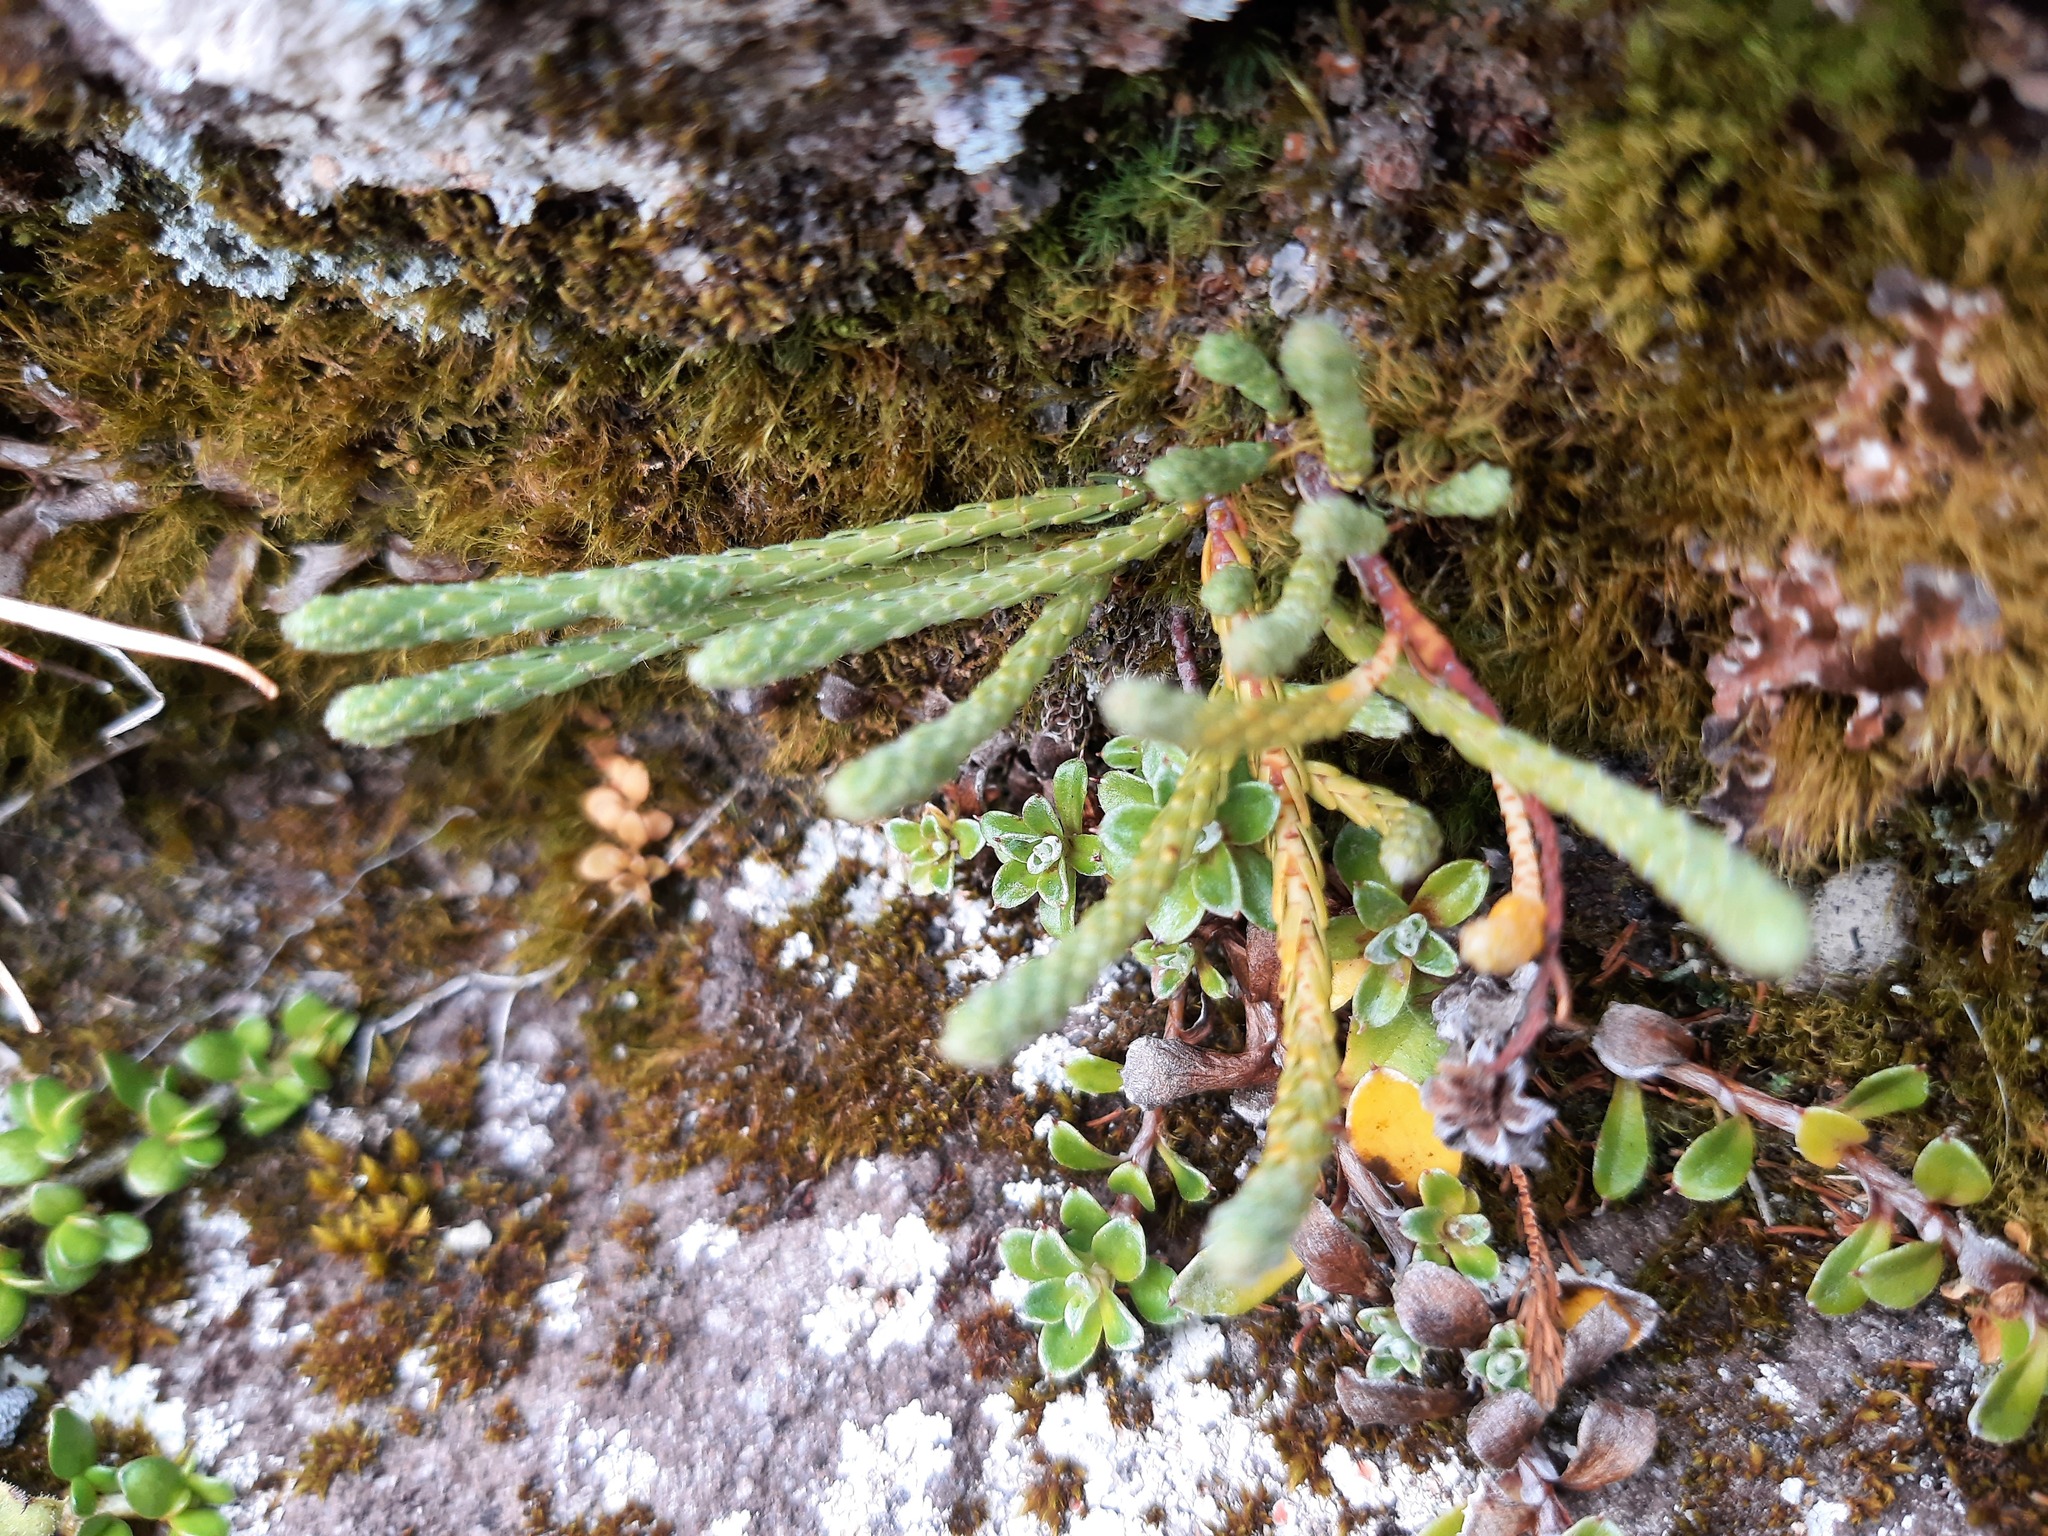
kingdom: Plantae
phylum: Tracheophyta
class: Magnoliopsida
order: Malvales
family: Thymelaeaceae
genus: Kelleria
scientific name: Kelleria dieffenbachii
